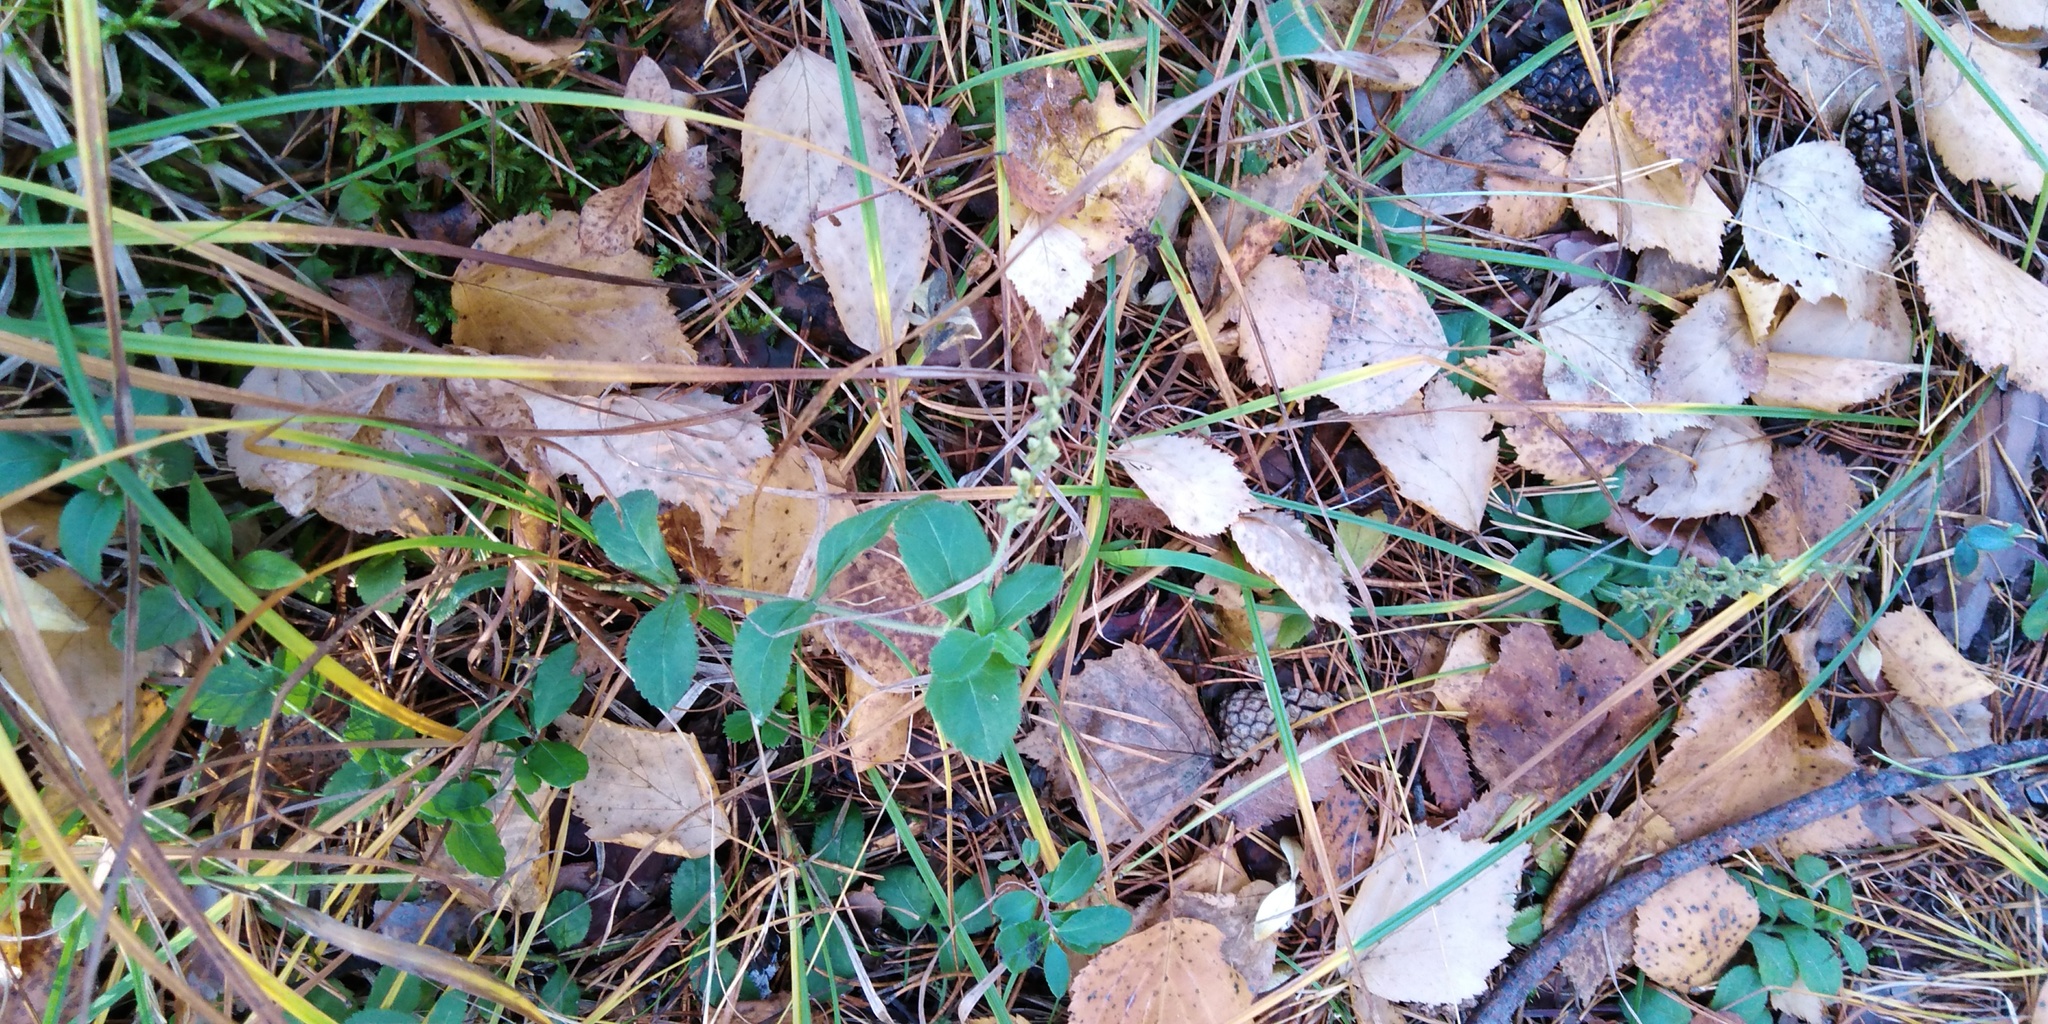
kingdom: Plantae
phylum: Tracheophyta
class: Magnoliopsida
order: Lamiales
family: Plantaginaceae
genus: Veronica
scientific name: Veronica officinalis
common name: Common speedwell
